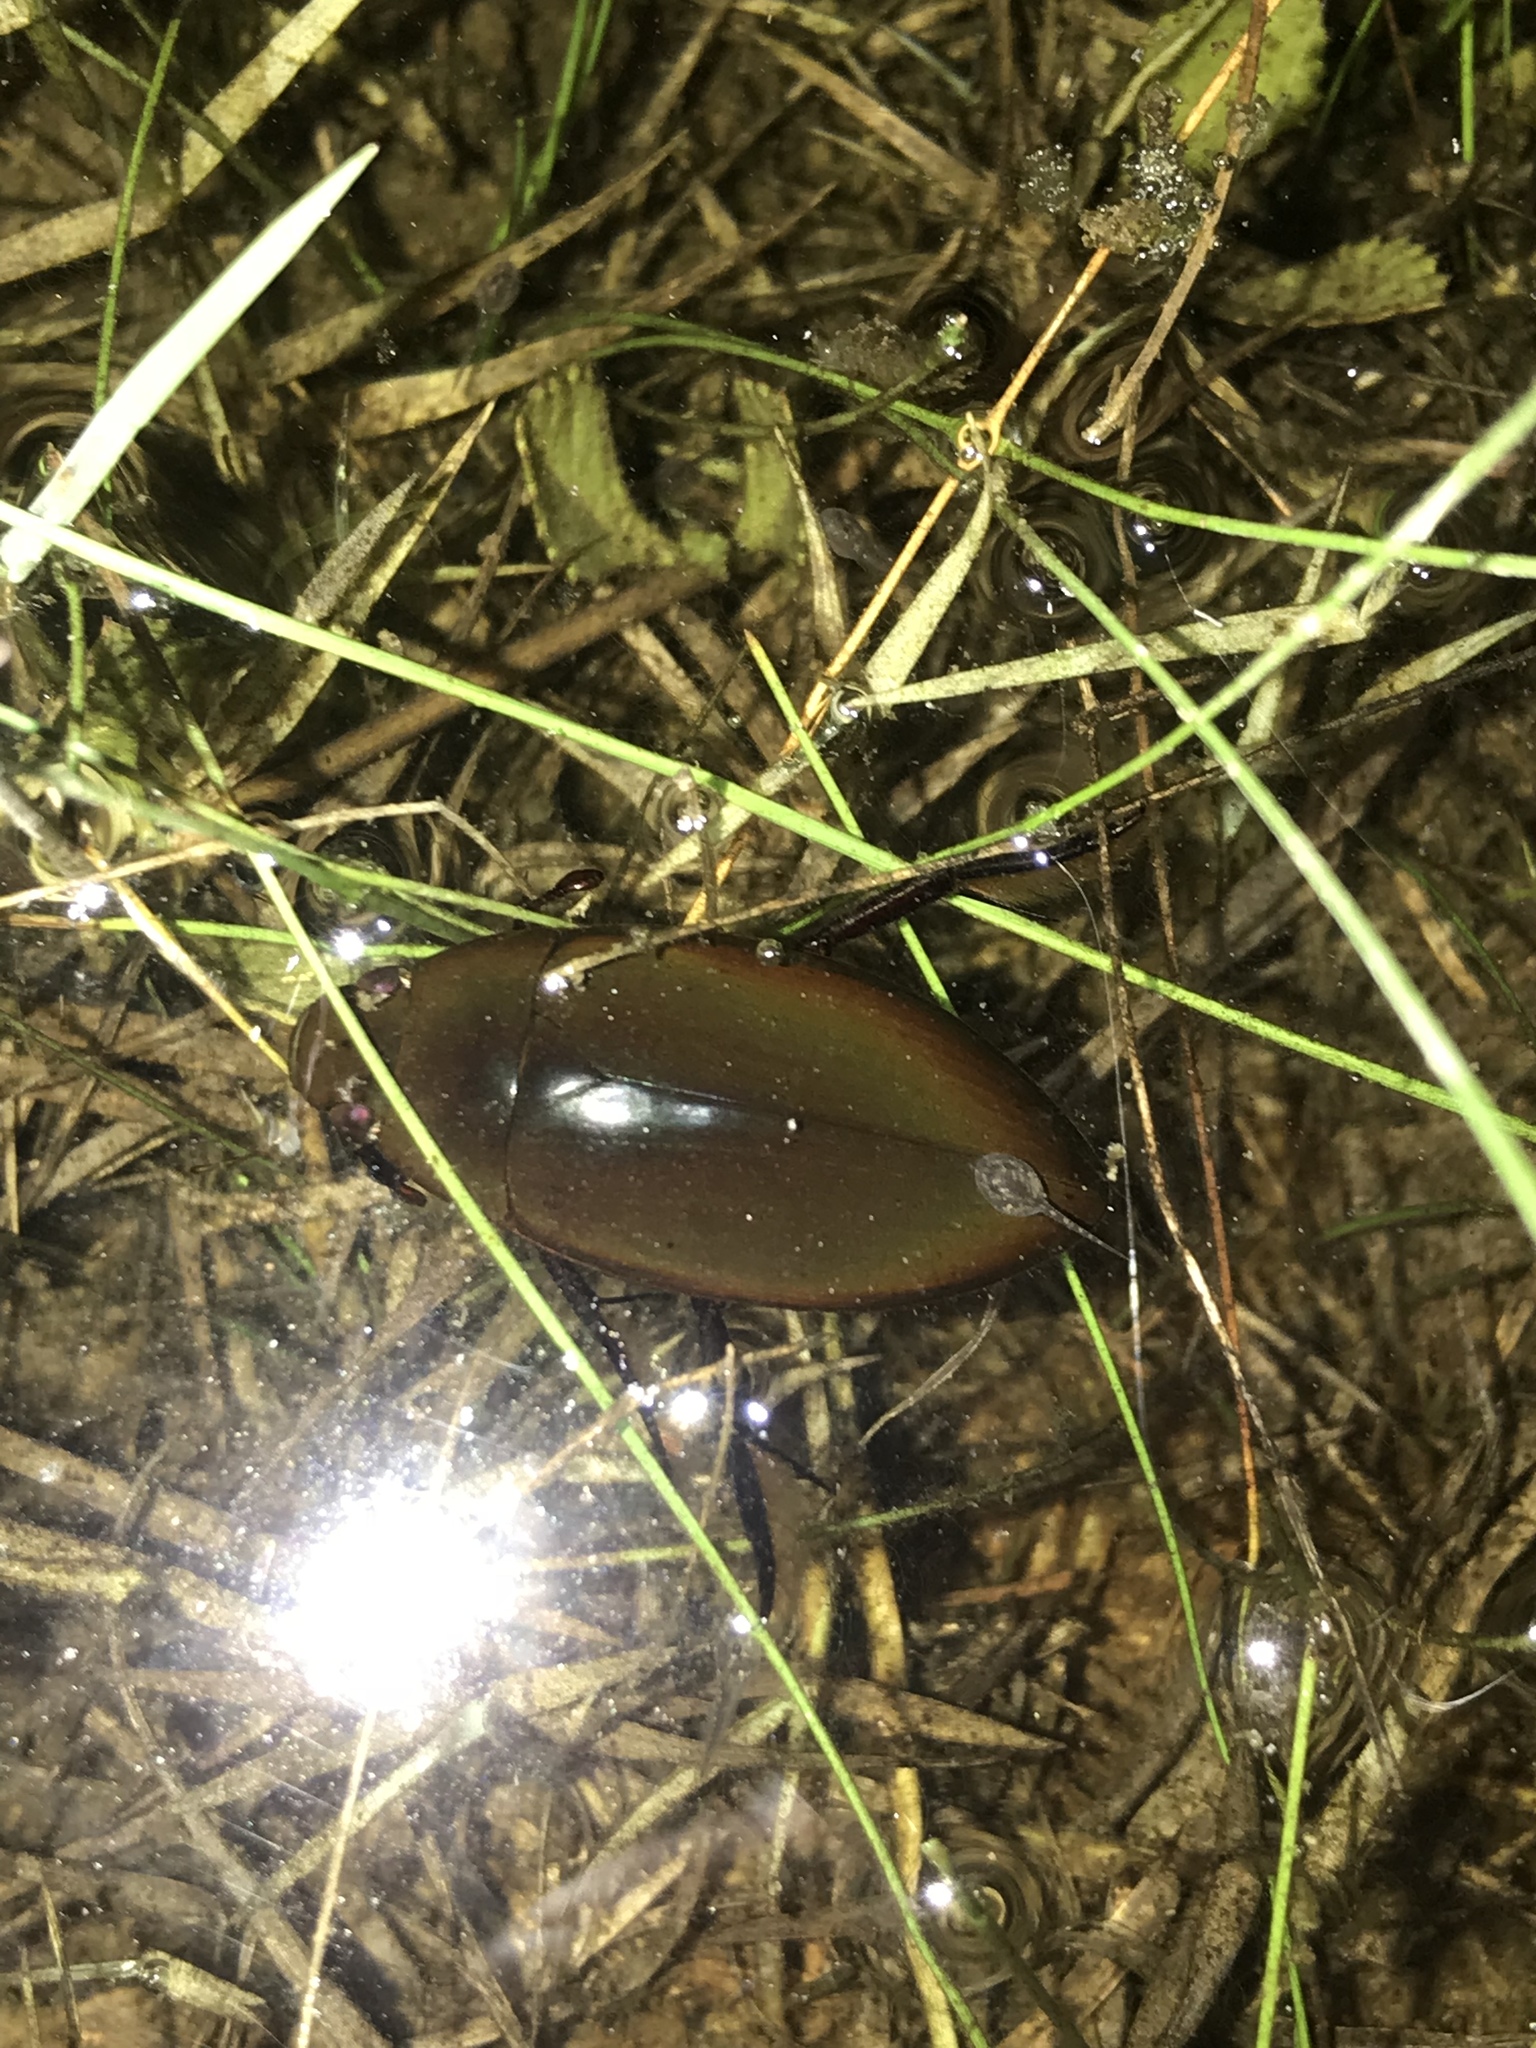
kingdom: Animalia
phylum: Arthropoda
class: Insecta
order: Coleoptera
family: Hydrophilidae
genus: Hydrophilus
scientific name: Hydrophilus
